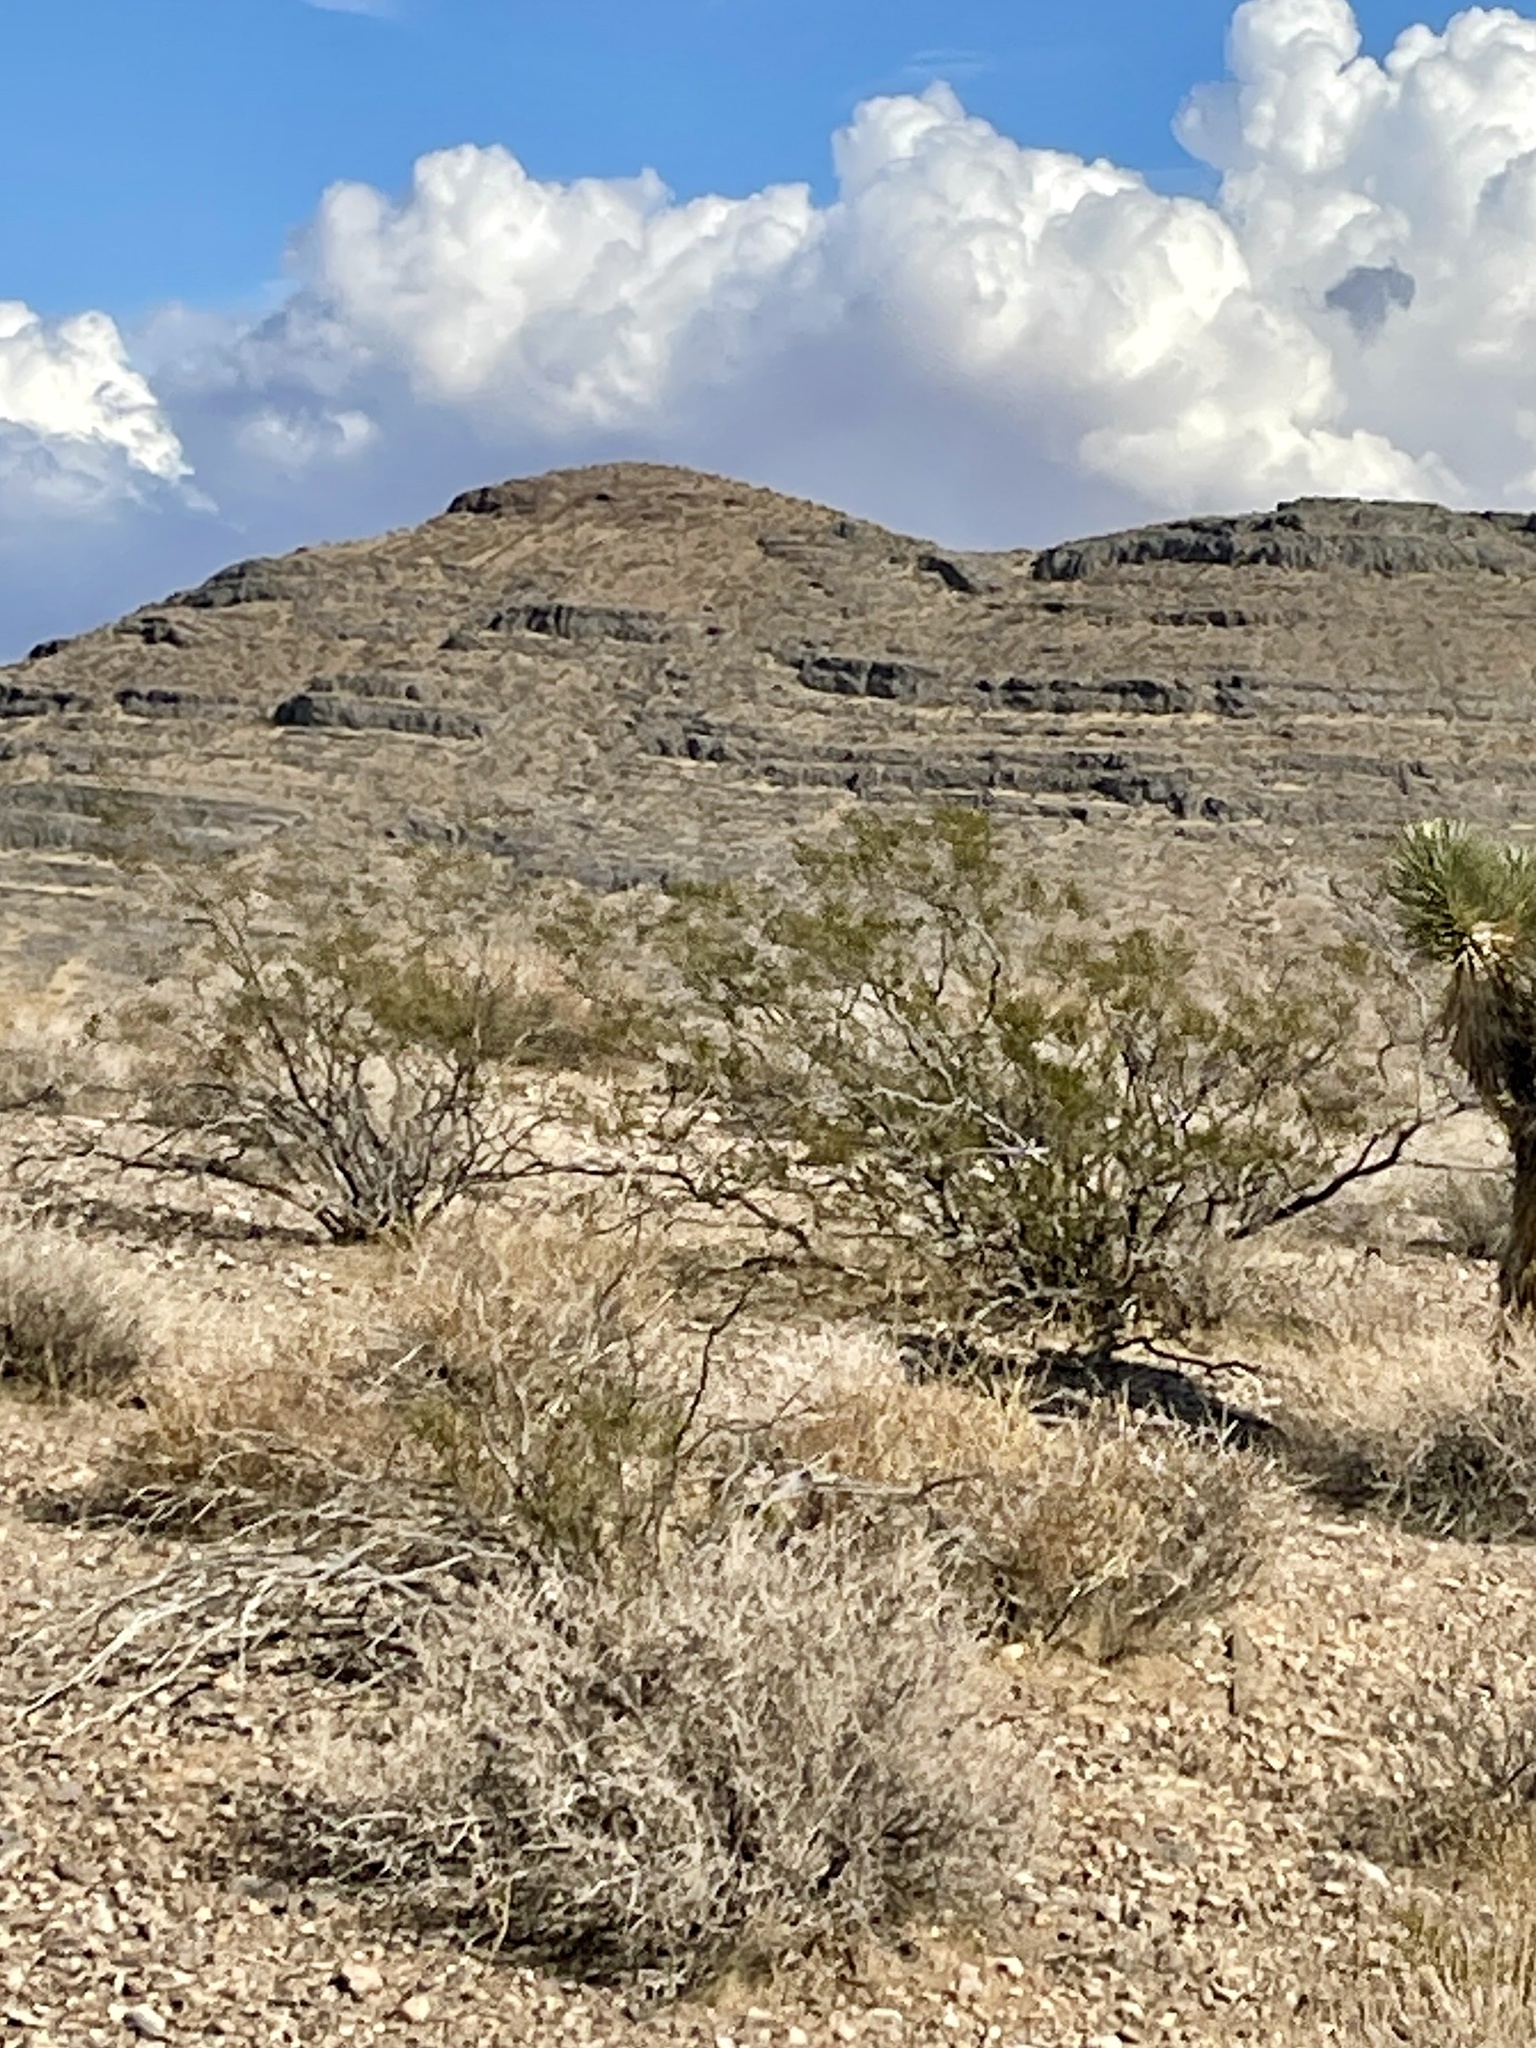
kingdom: Plantae
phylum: Tracheophyta
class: Magnoliopsida
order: Zygophyllales
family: Zygophyllaceae
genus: Larrea
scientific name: Larrea tridentata
